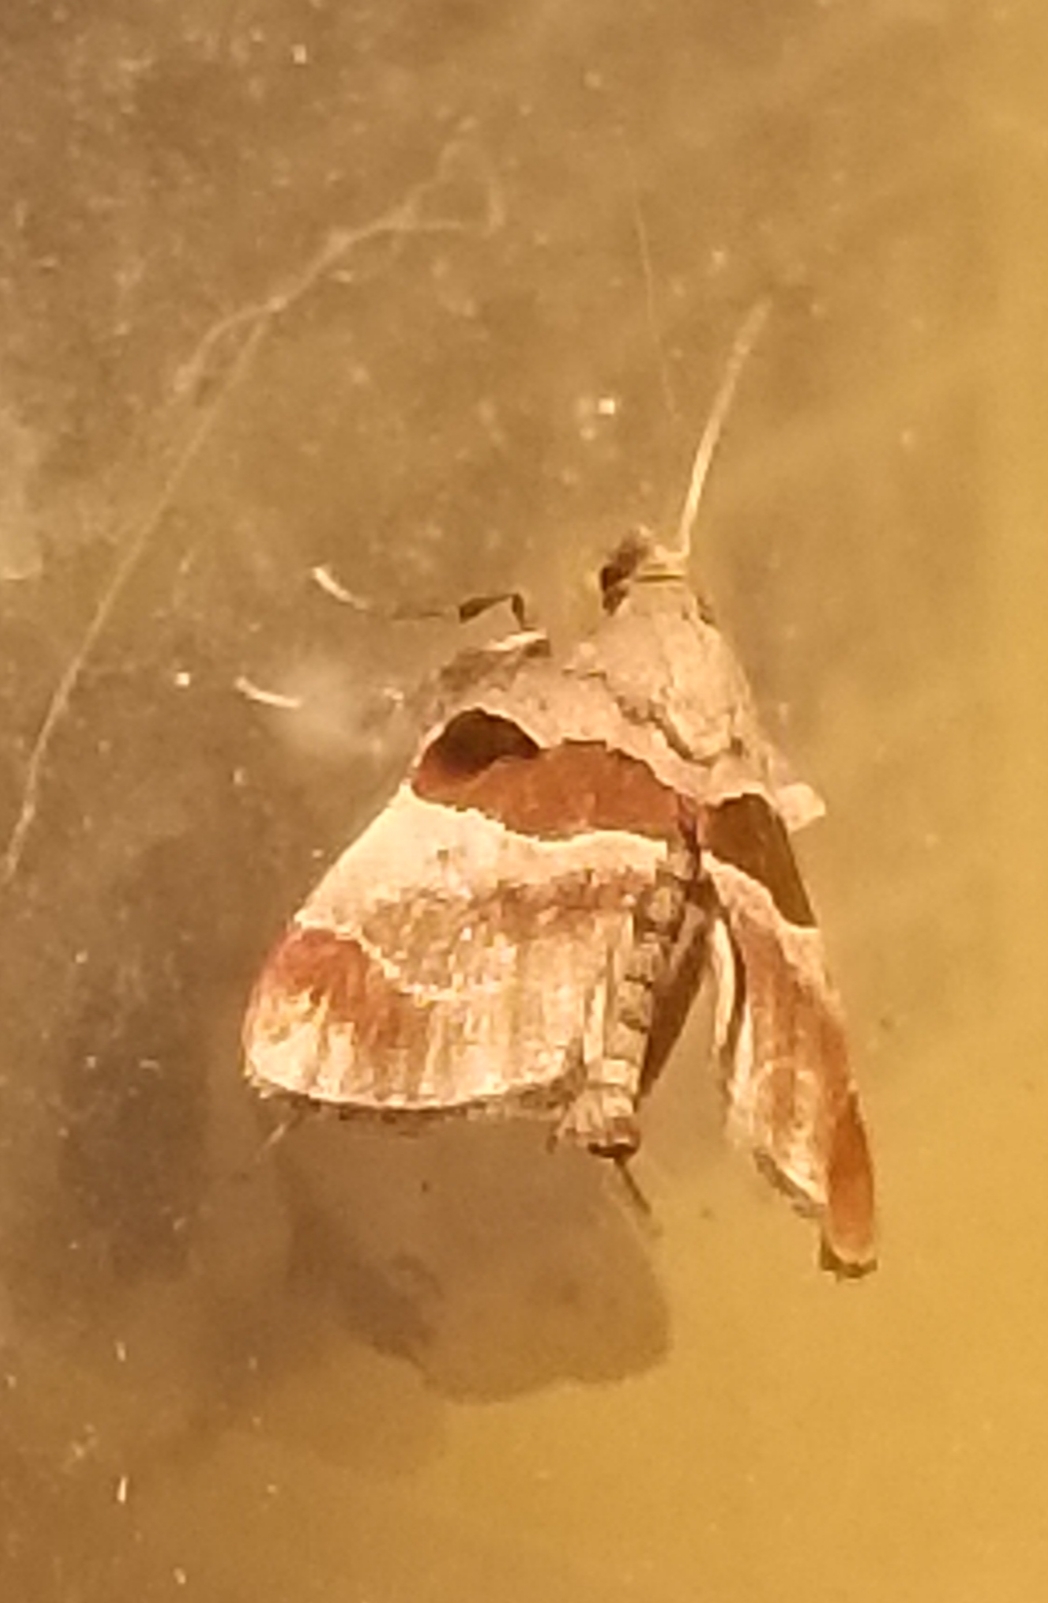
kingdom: Animalia
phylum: Arthropoda
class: Insecta
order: Lepidoptera
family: Pyralidae
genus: Tosale
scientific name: Tosale oviplagalis
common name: Dimorphic tosale moth
